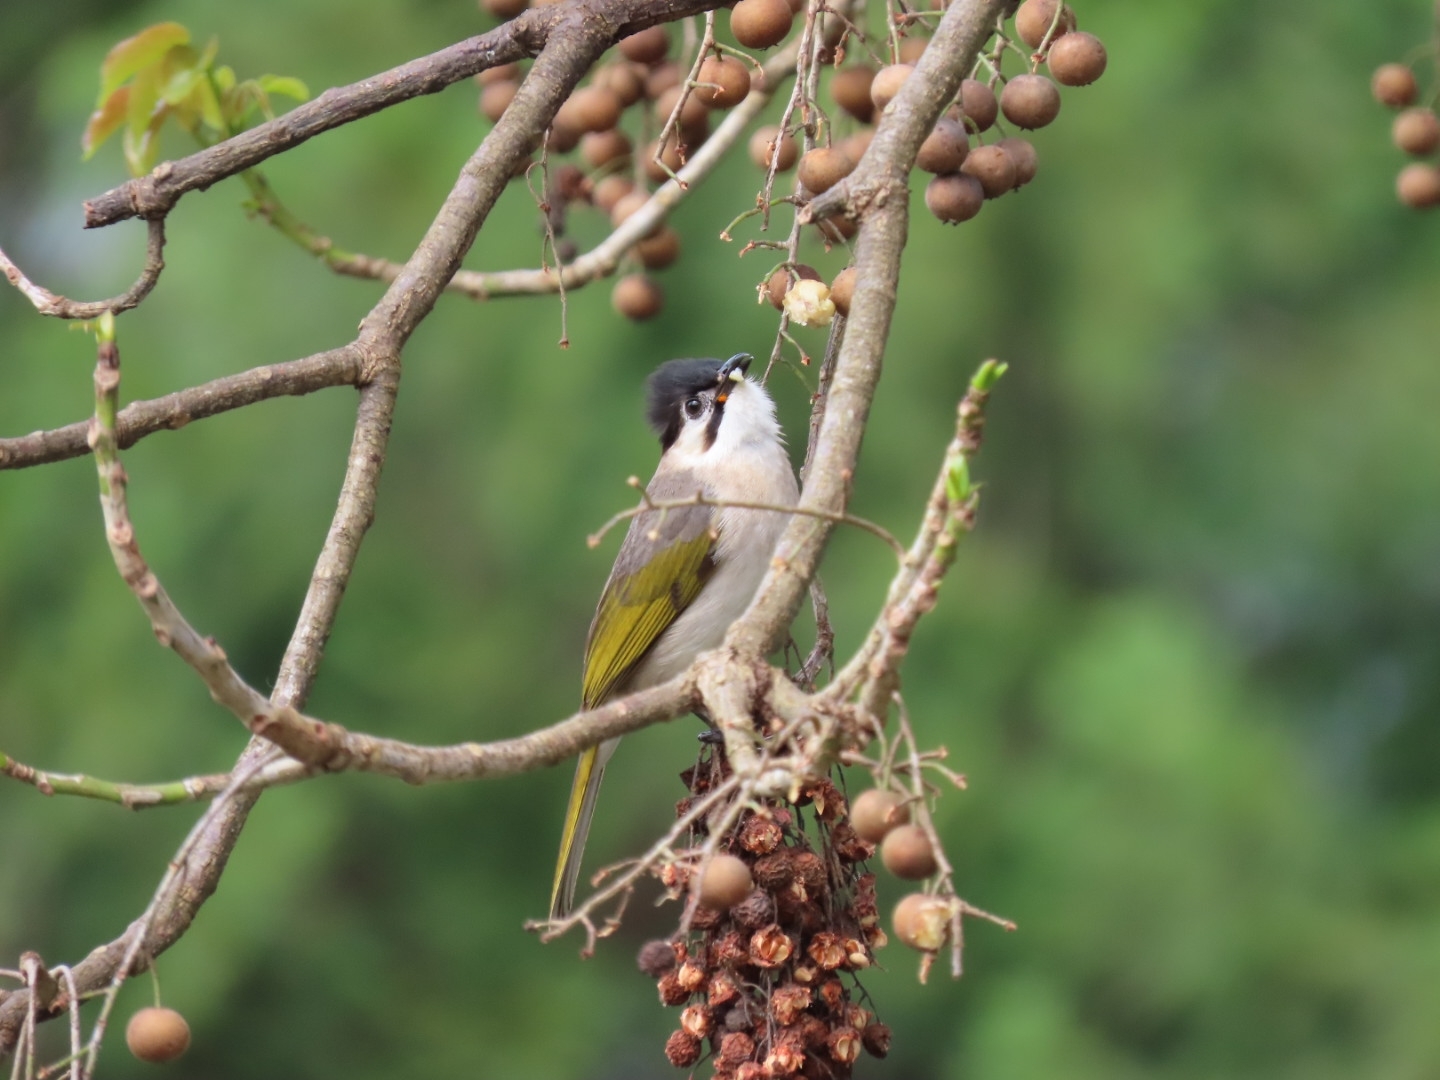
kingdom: Animalia
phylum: Chordata
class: Aves
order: Passeriformes
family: Pycnonotidae
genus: Pycnonotus
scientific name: Pycnonotus taivanus
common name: Styan's bulbul
